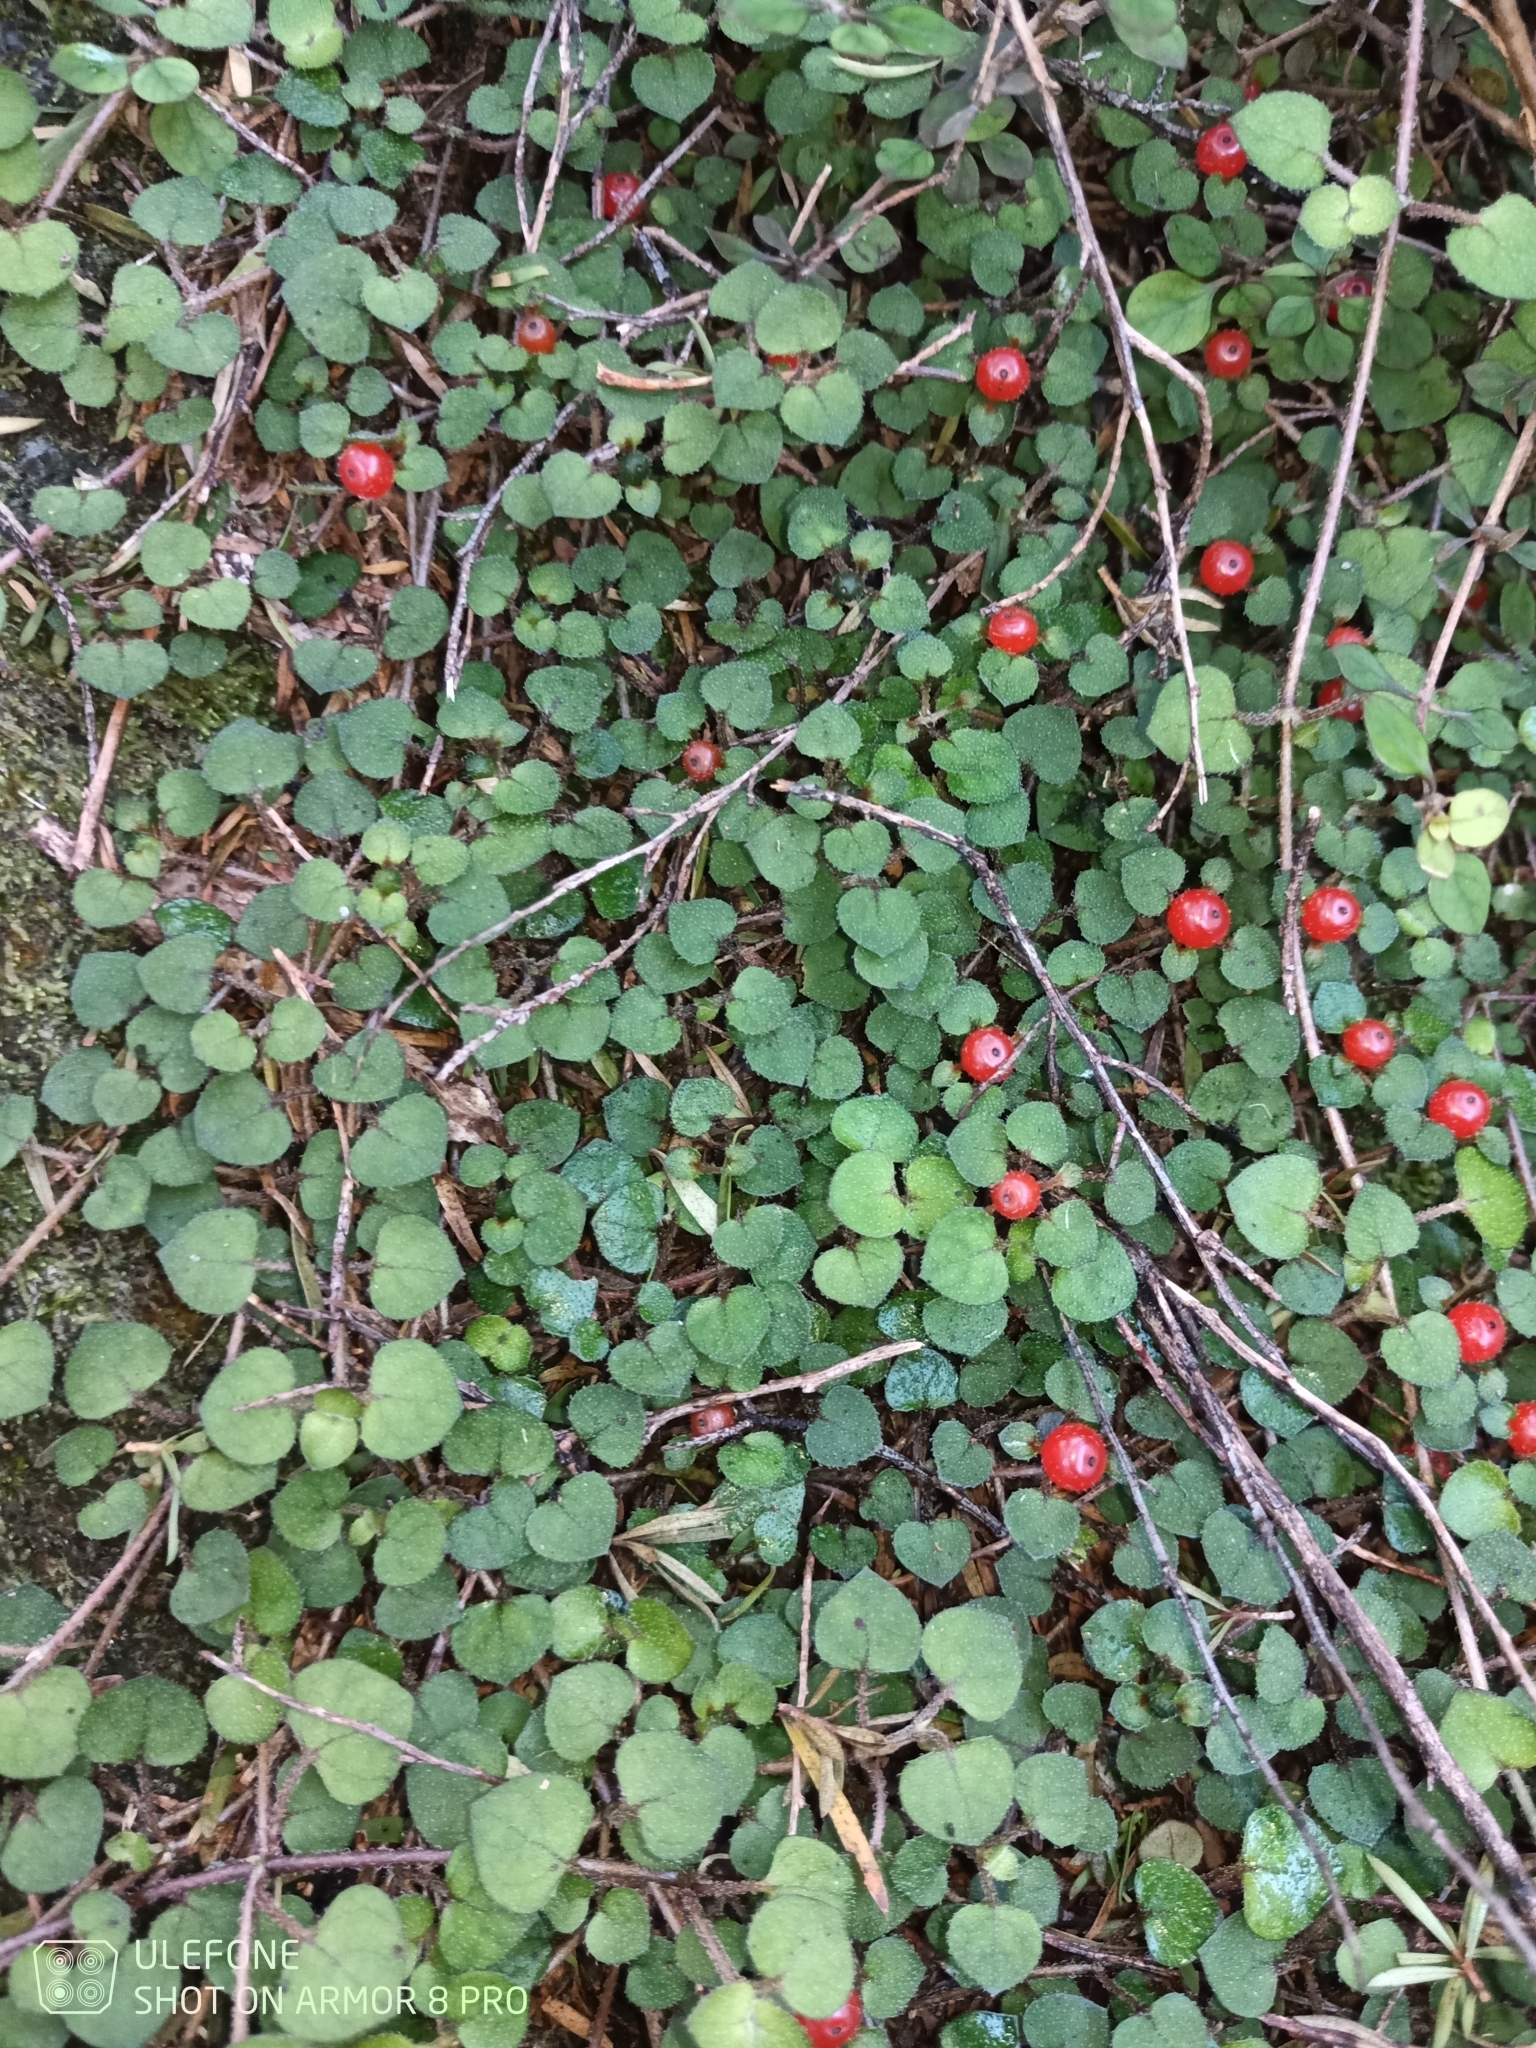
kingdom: Plantae
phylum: Tracheophyta
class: Magnoliopsida
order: Gentianales
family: Rubiaceae
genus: Nertera
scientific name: Nertera dichondrifolia
